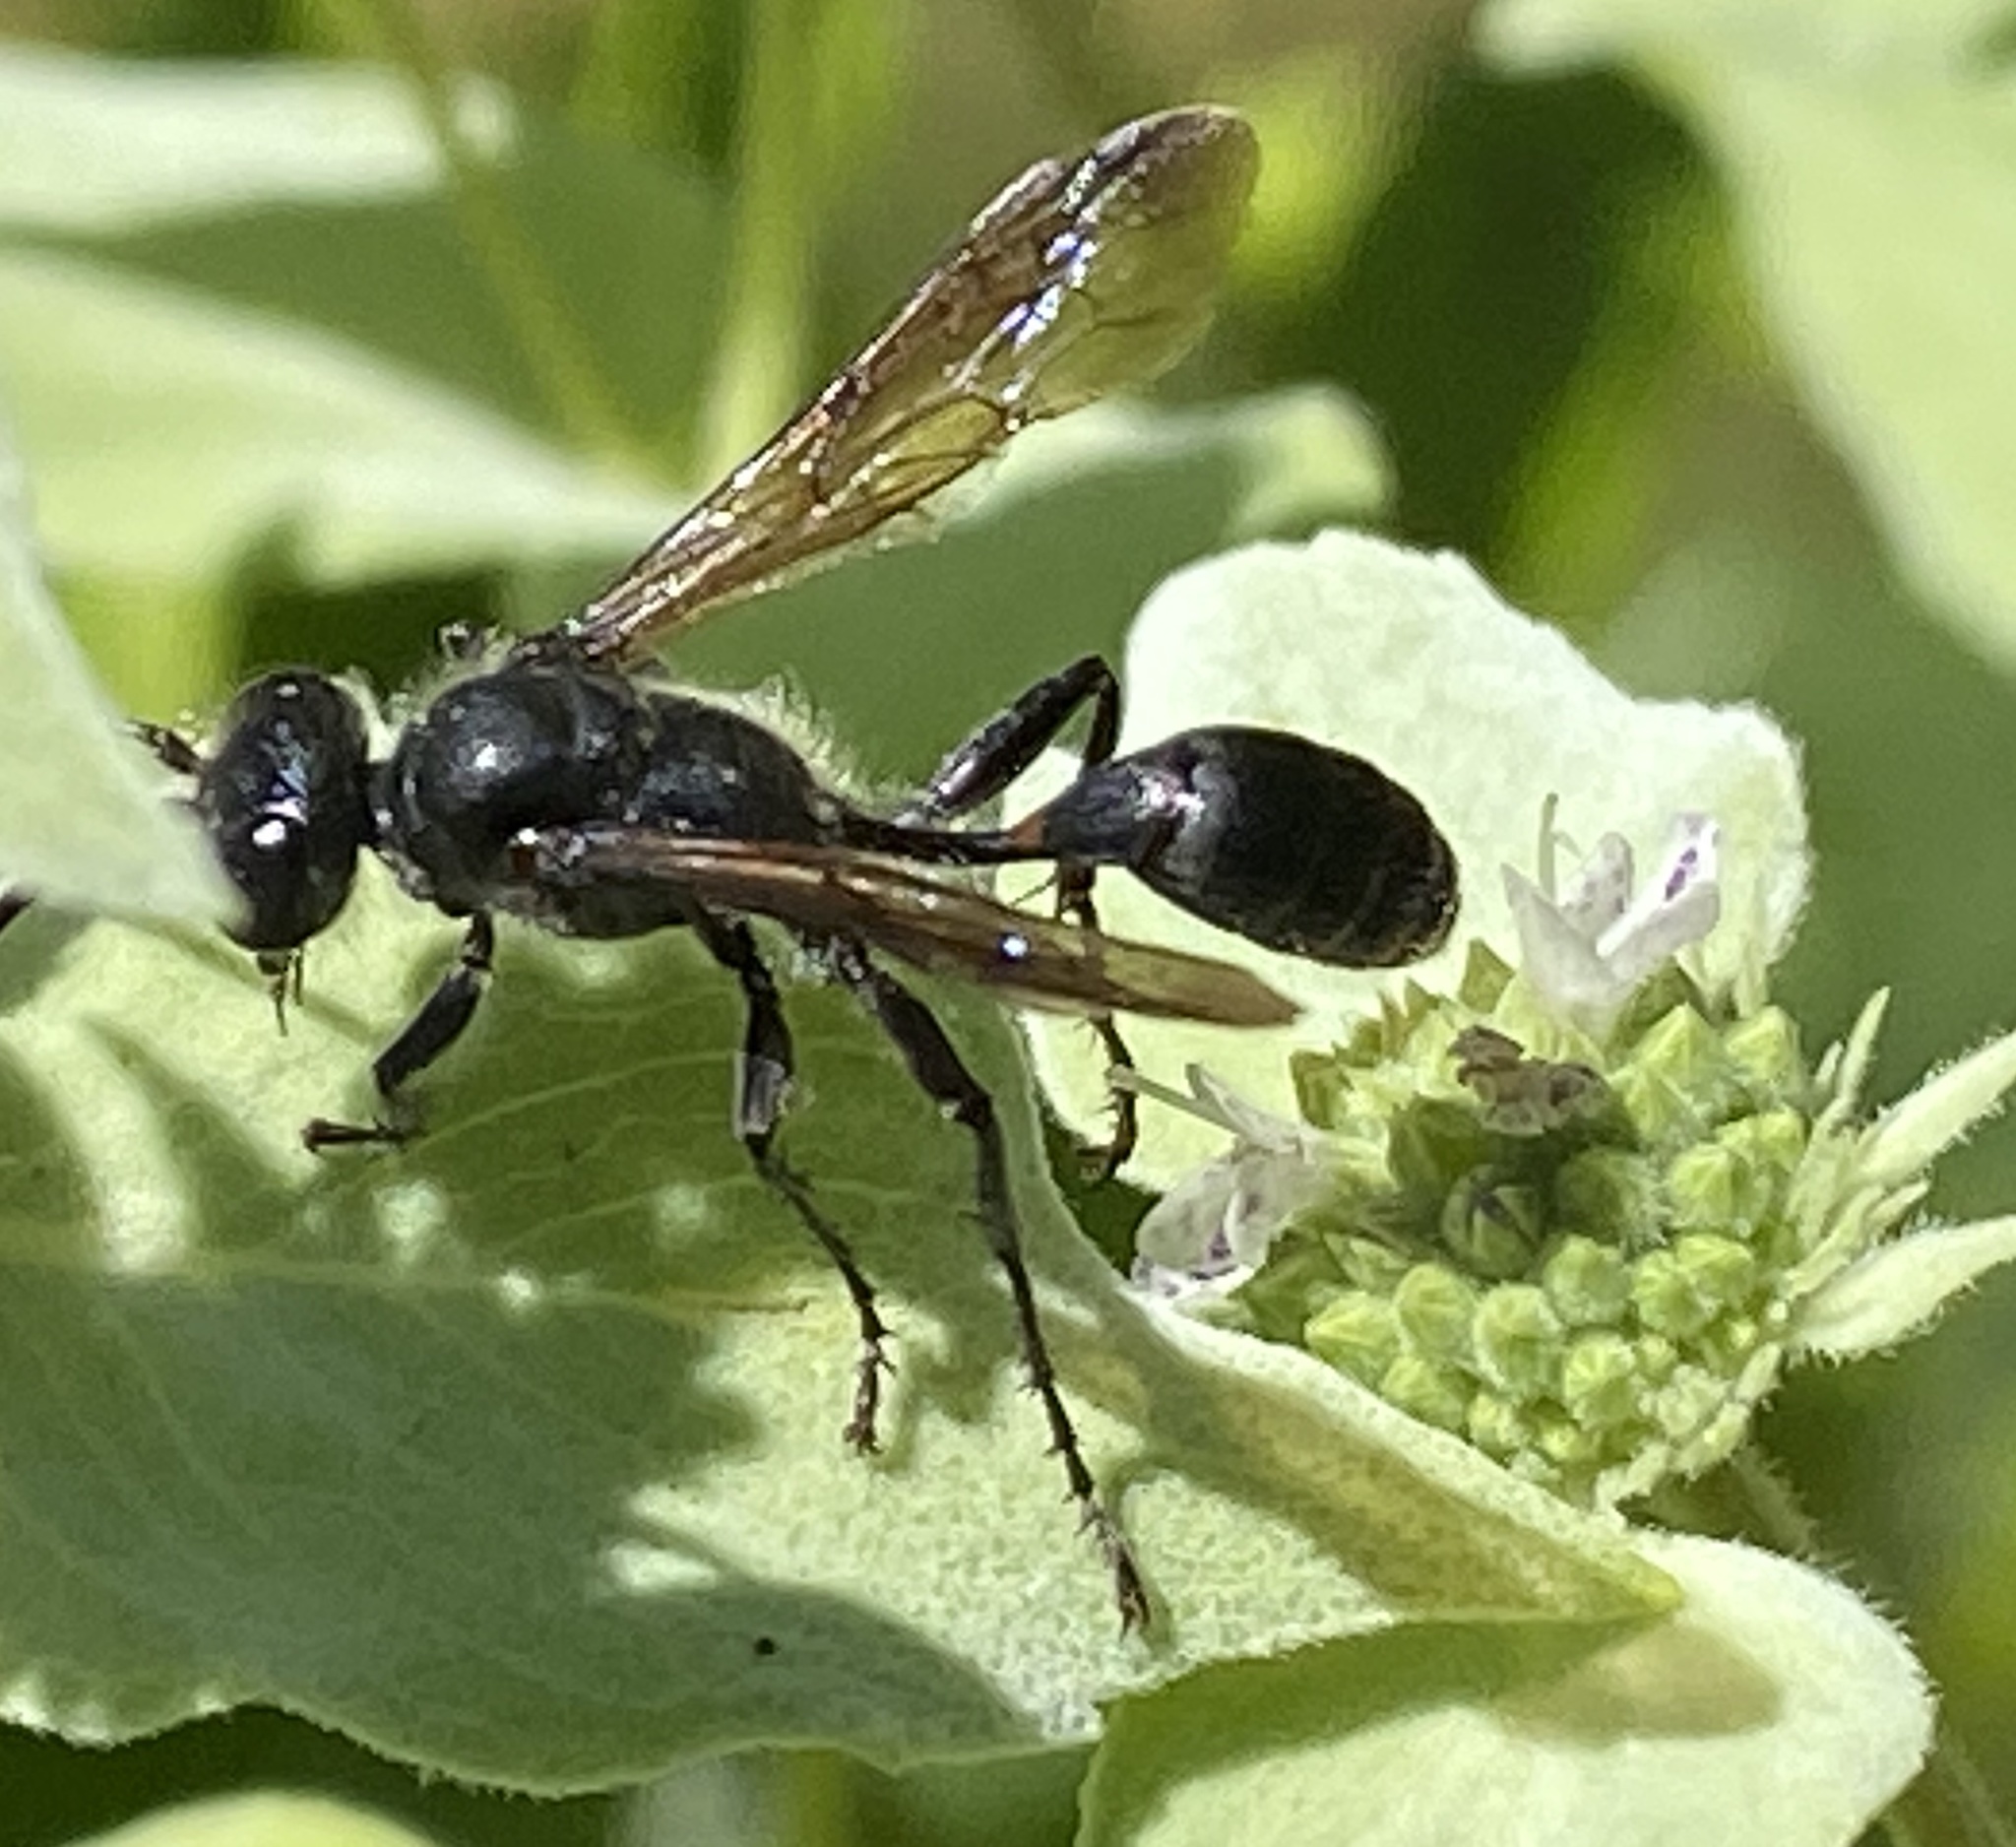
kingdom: Animalia
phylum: Arthropoda
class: Insecta
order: Hymenoptera
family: Sphecidae
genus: Isodontia
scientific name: Isodontia mexicana
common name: Mud dauber
